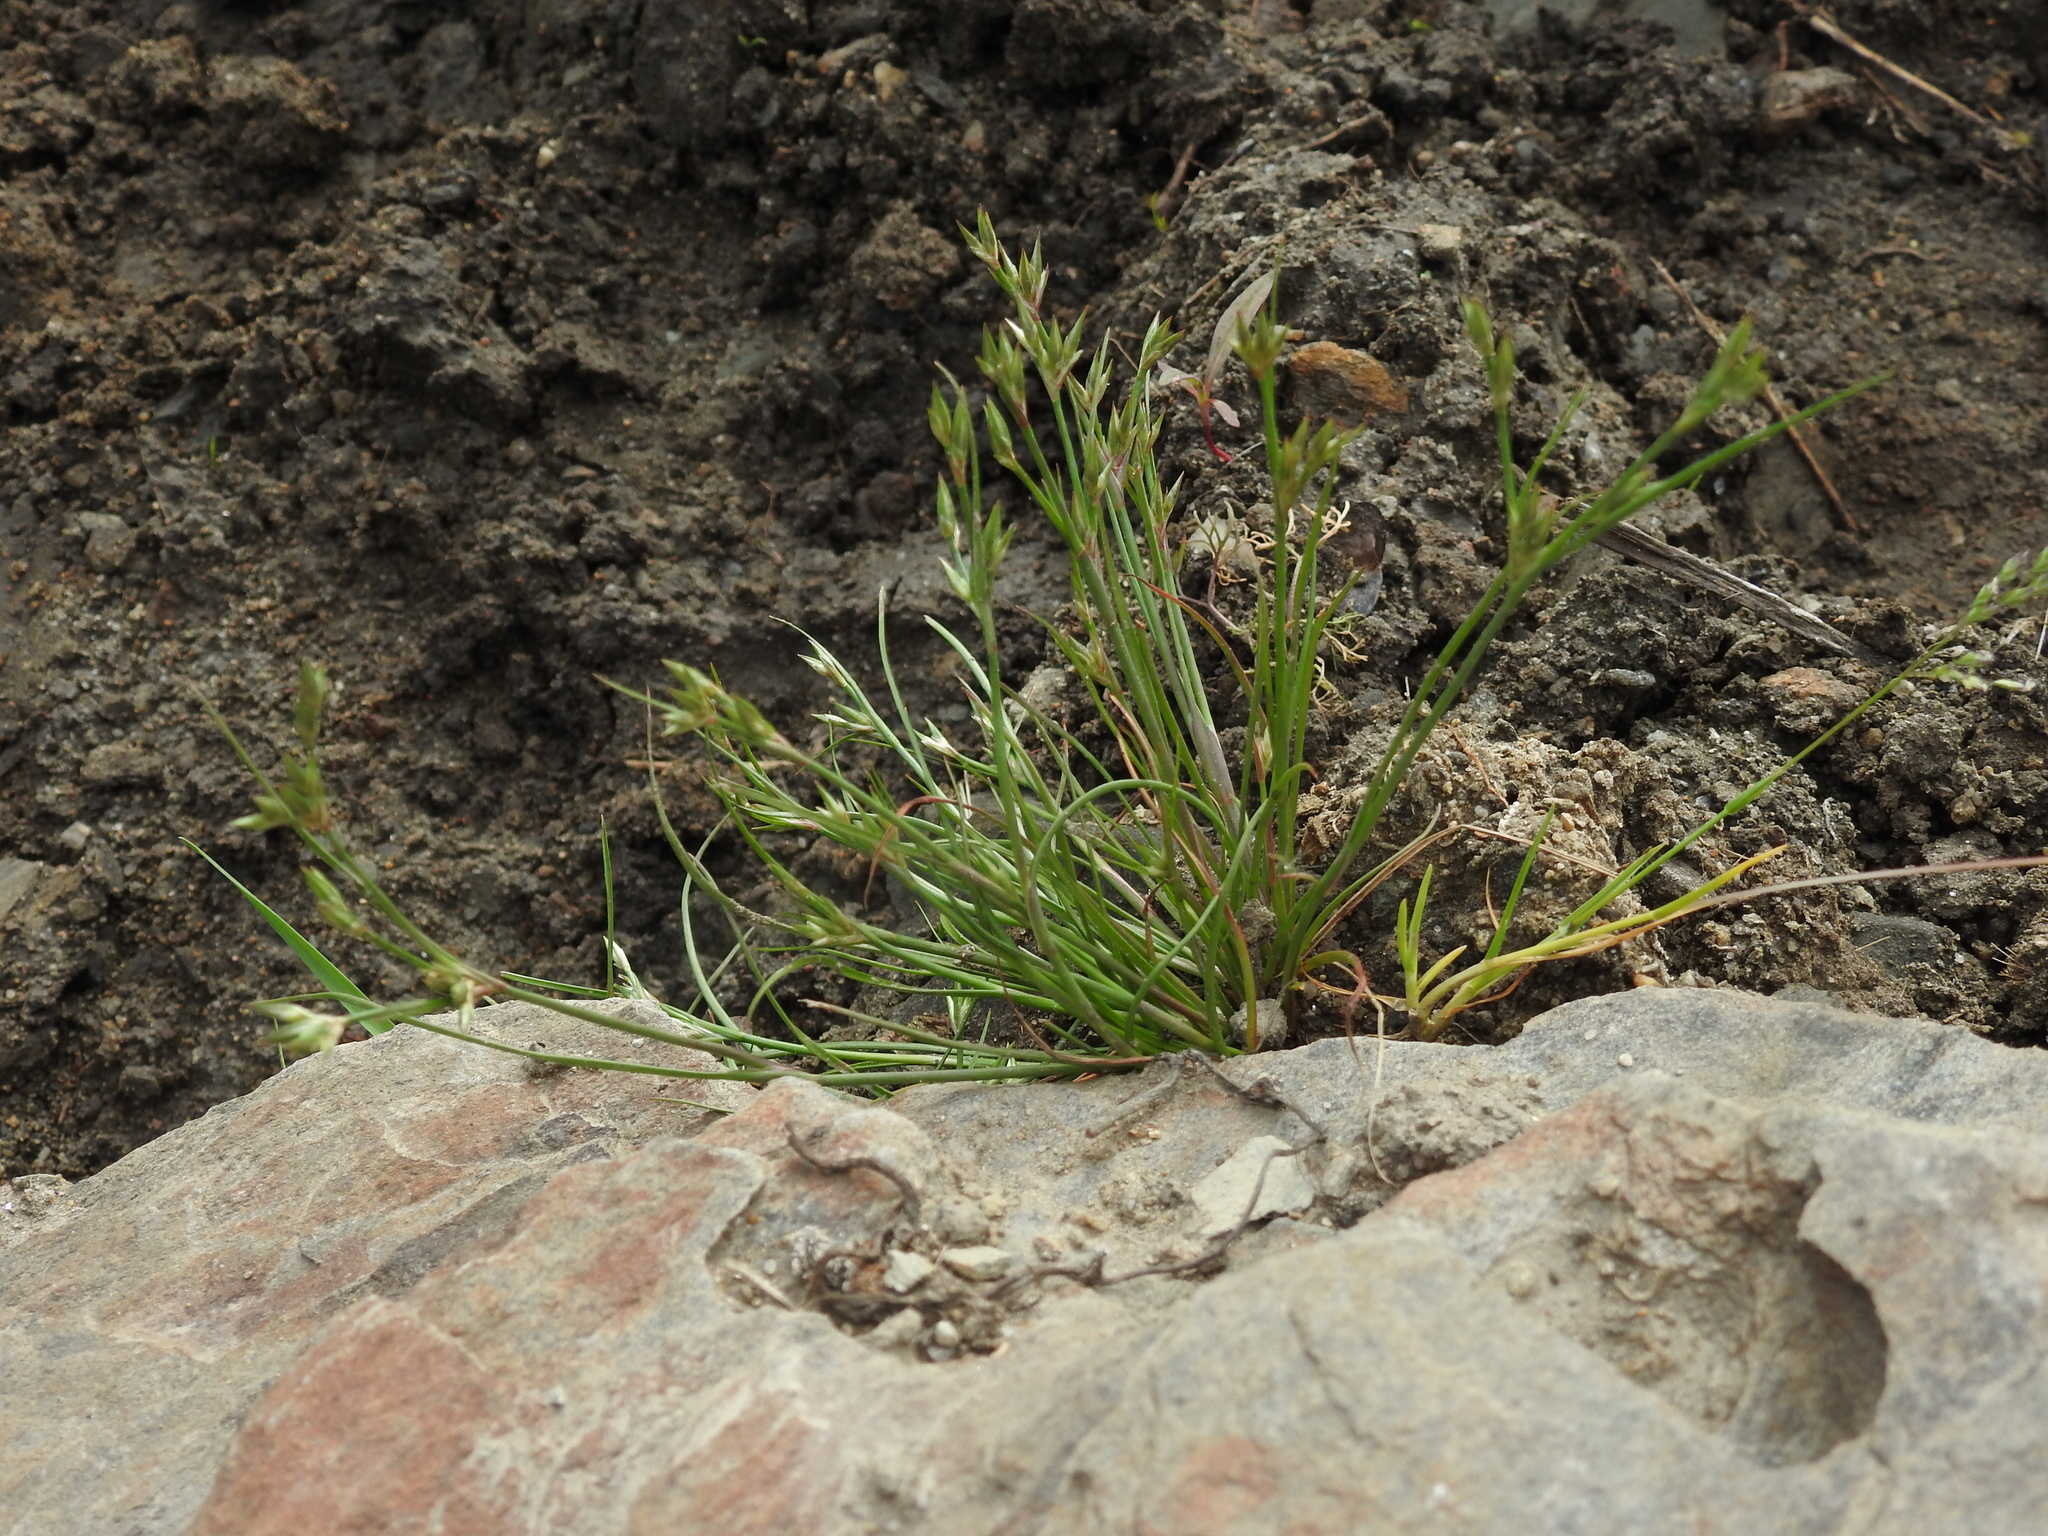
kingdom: Plantae
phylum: Tracheophyta
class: Liliopsida
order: Poales
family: Juncaceae
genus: Juncus
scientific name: Juncus bufonius
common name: Toad rush
